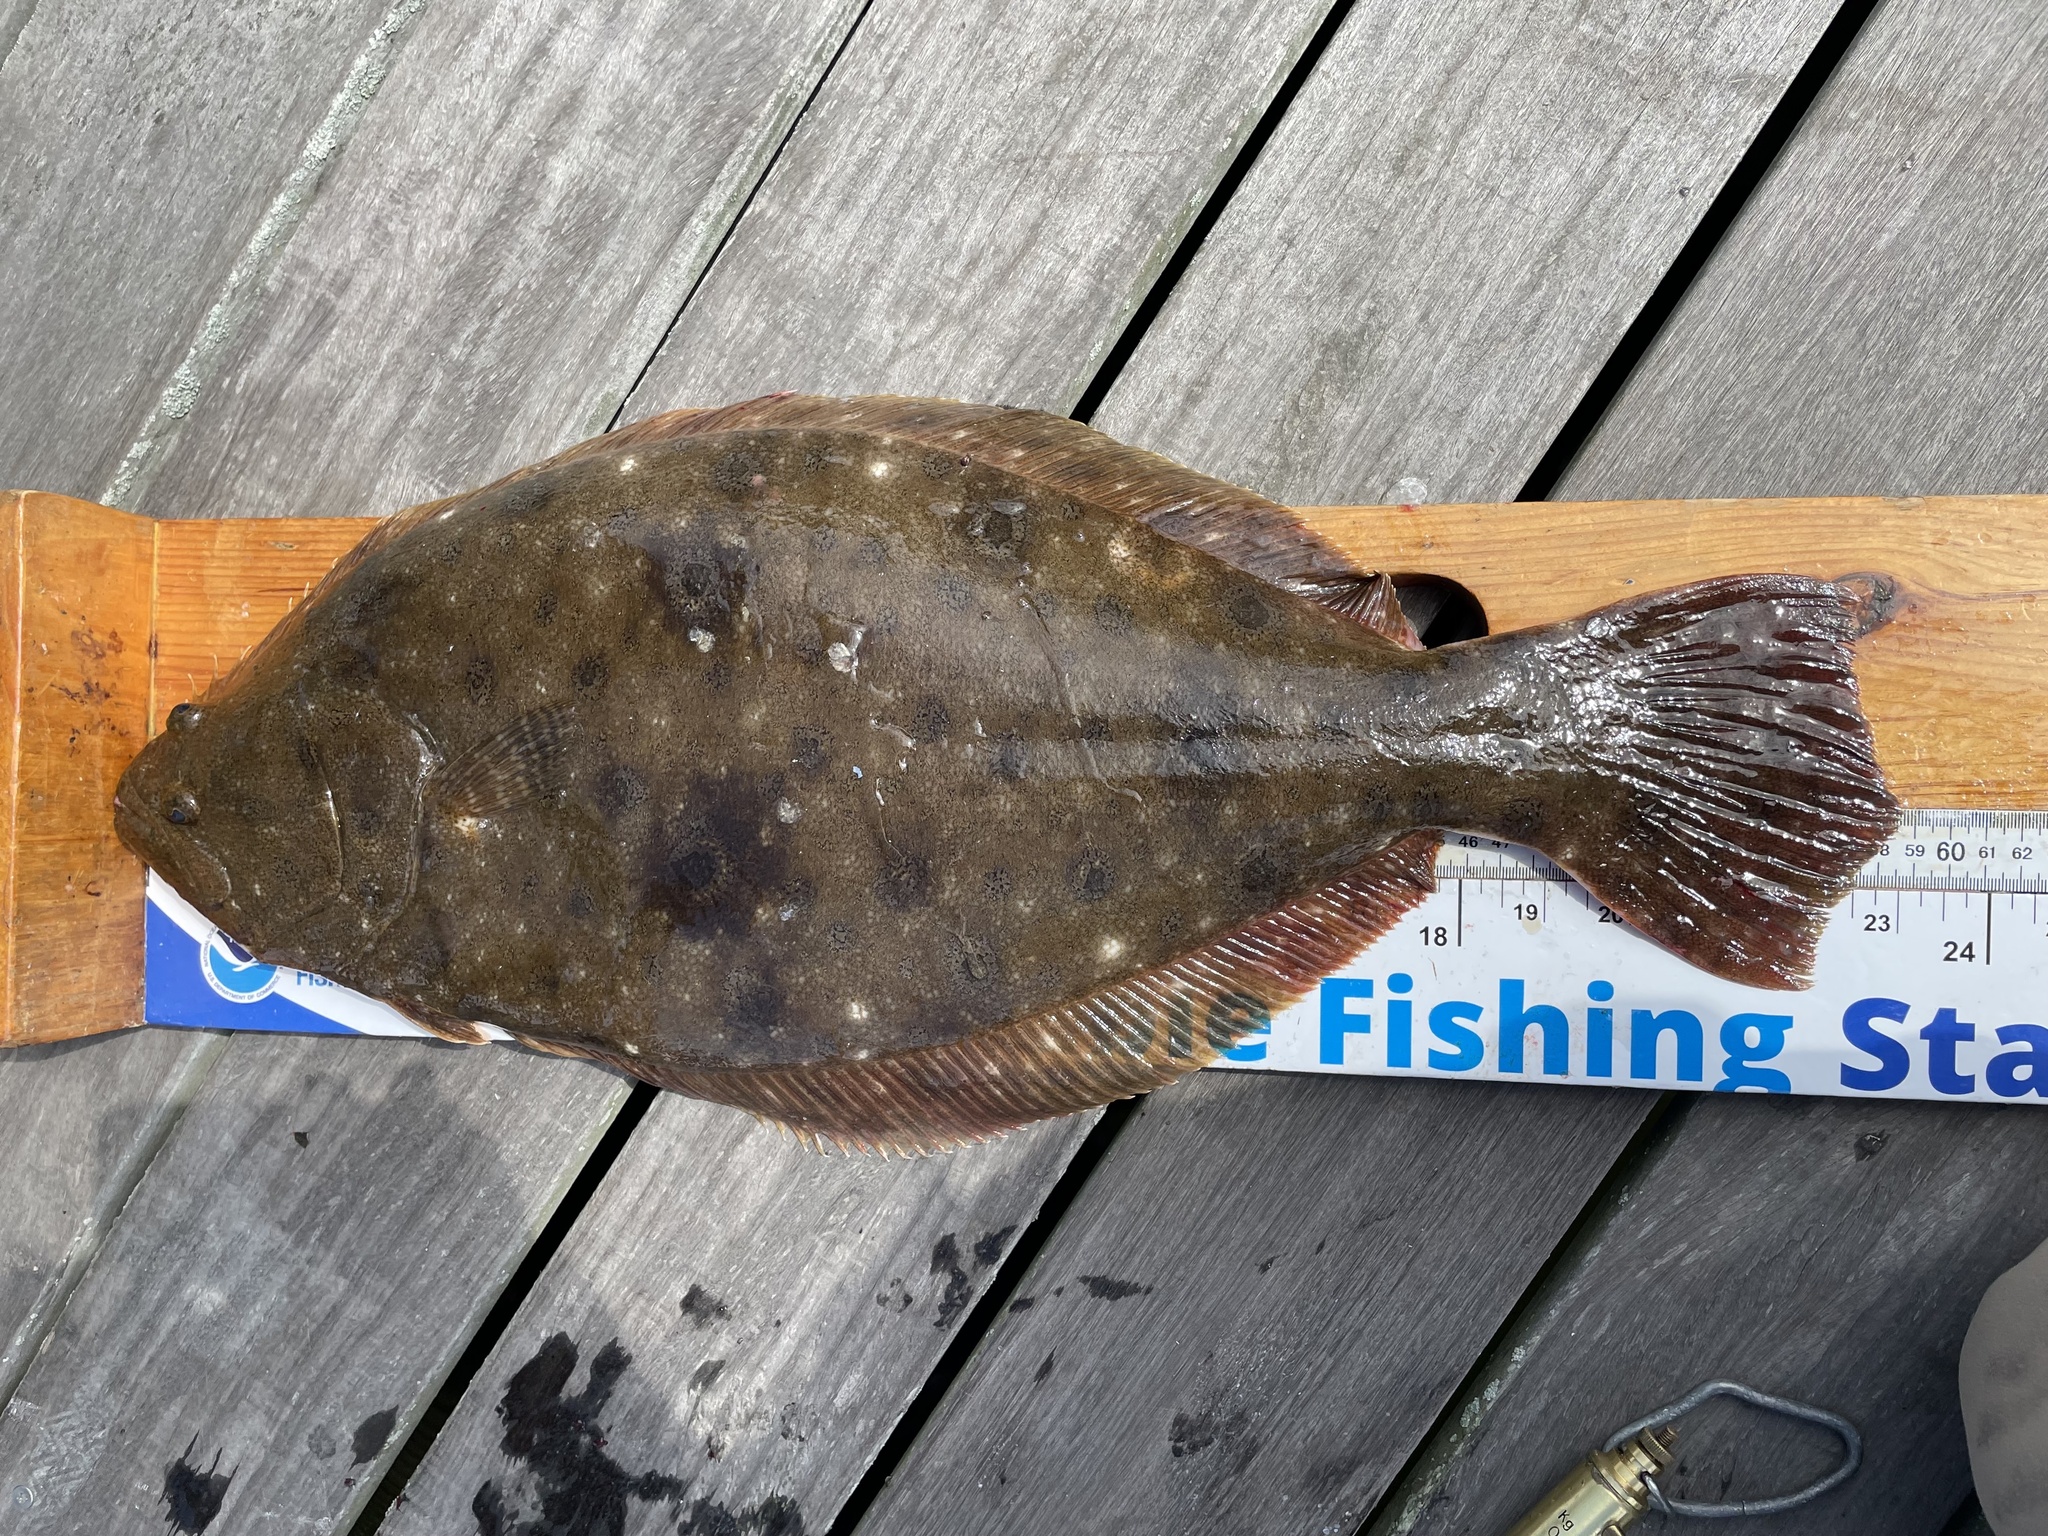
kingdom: Animalia
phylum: Chordata
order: Pleuronectiformes
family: Paralichthyidae
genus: Paralichthys
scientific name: Paralichthys dentatus
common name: Summer flounder
